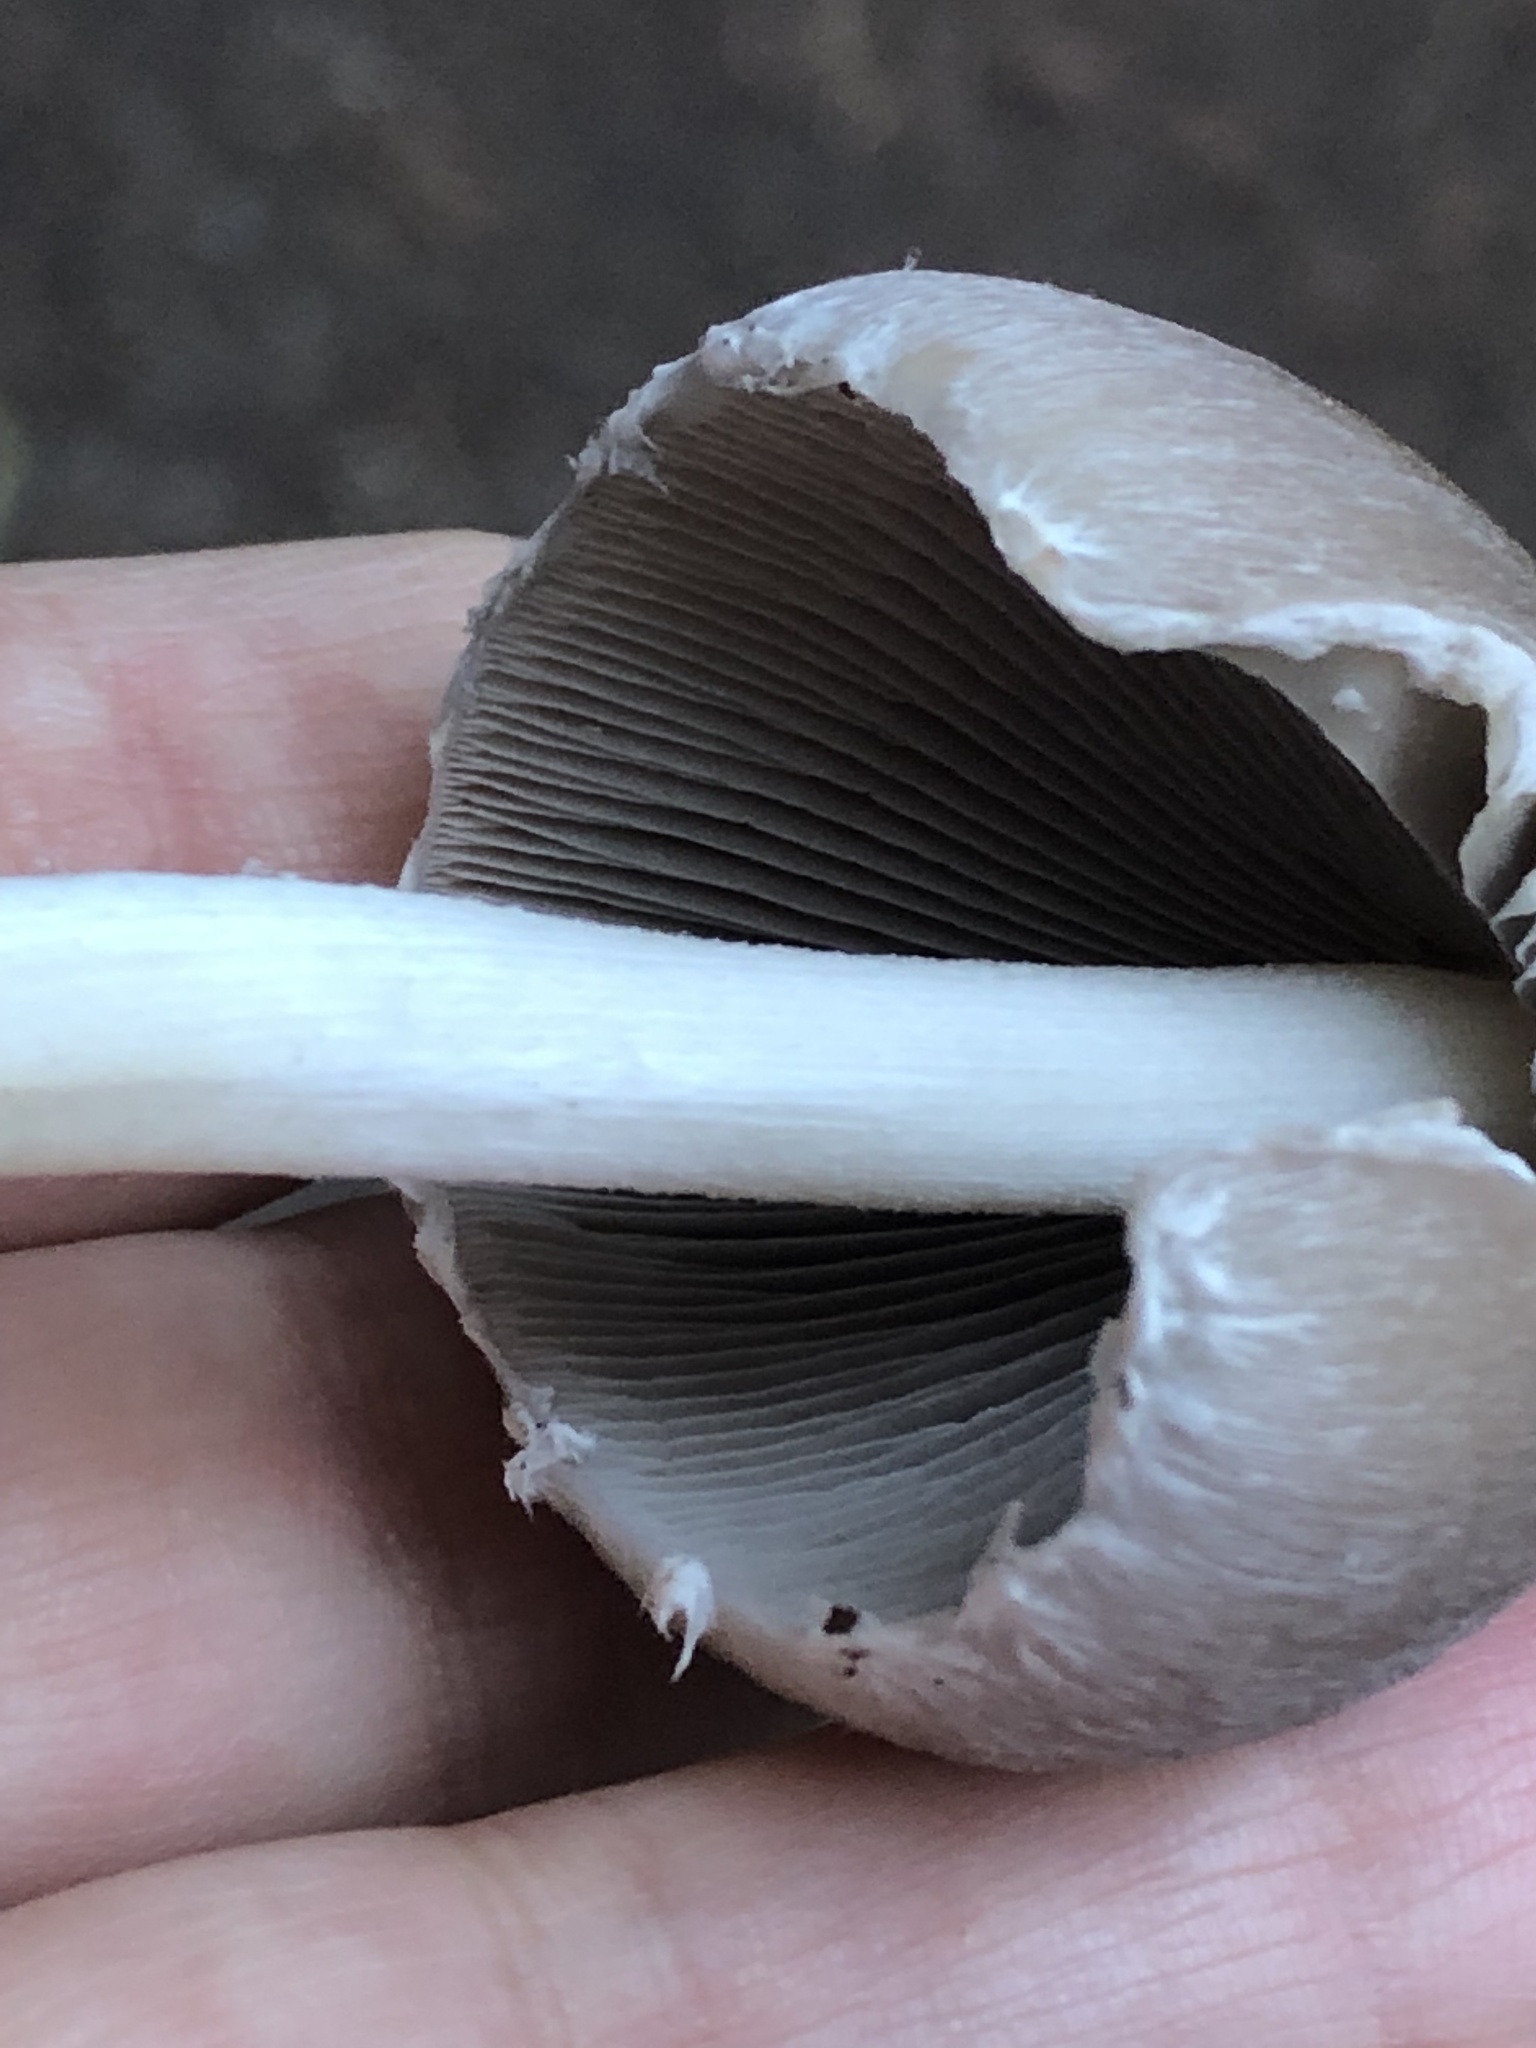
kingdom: Fungi
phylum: Basidiomycota
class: Agaricomycetes
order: Agaricales
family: Psathyrellaceae
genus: Psathyrella
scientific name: Psathyrella longipes
